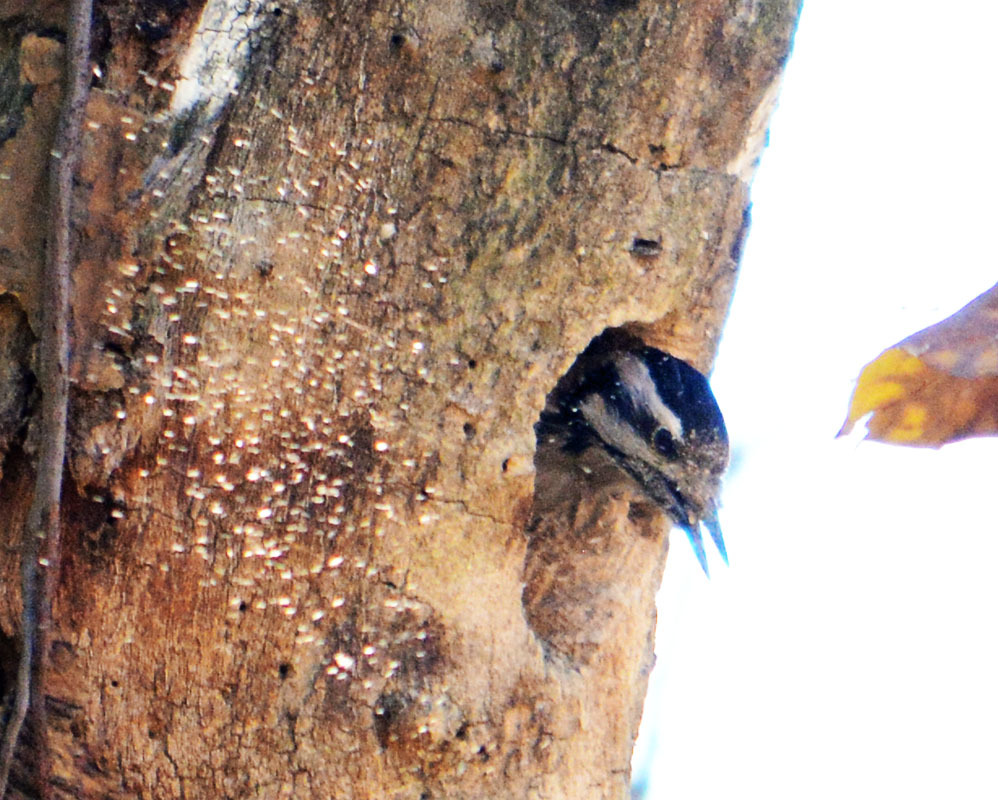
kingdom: Animalia
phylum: Chordata
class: Aves
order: Piciformes
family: Picidae
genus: Dryobates
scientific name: Dryobates scalaris
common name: Ladder-backed woodpecker
